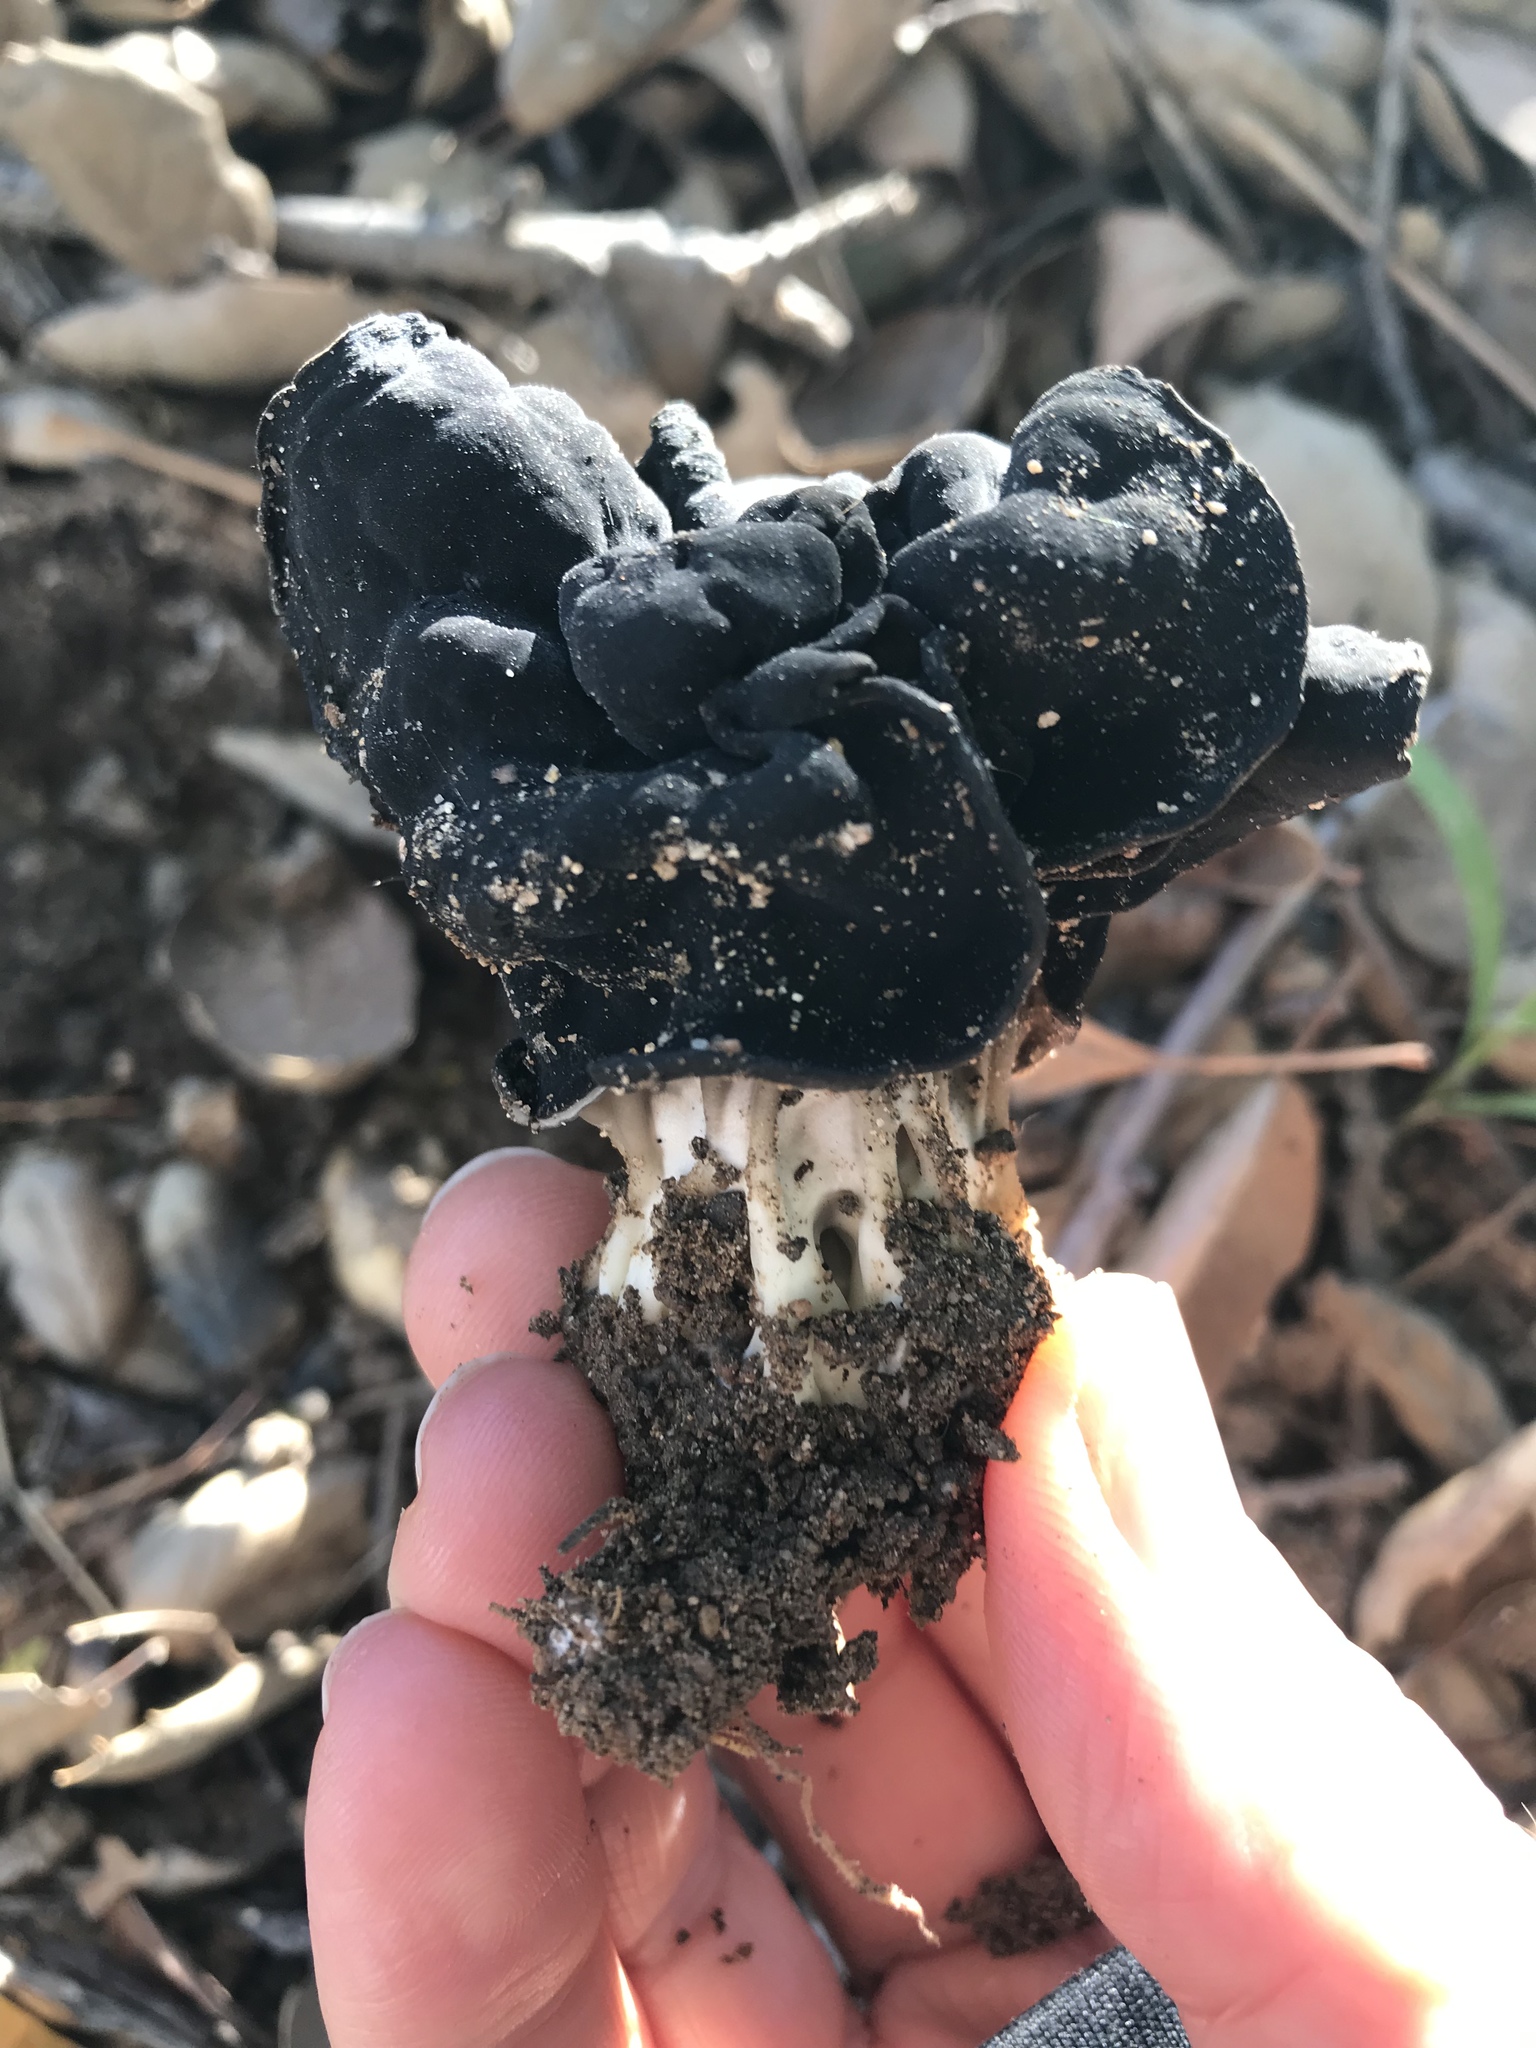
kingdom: Fungi
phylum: Ascomycota
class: Pezizomycetes
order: Pezizales
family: Helvellaceae
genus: Helvella
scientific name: Helvella dryophila
